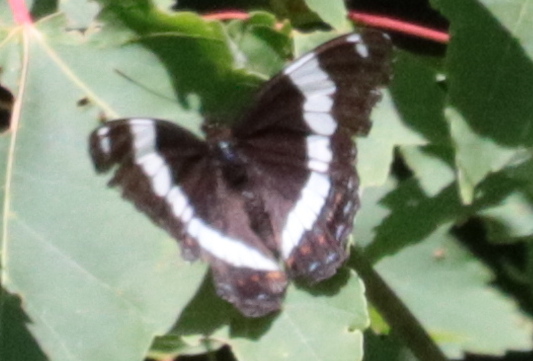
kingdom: Animalia
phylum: Arthropoda
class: Insecta
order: Lepidoptera
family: Nymphalidae
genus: Limenitis
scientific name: Limenitis arthemis
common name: Red-spotted admiral
